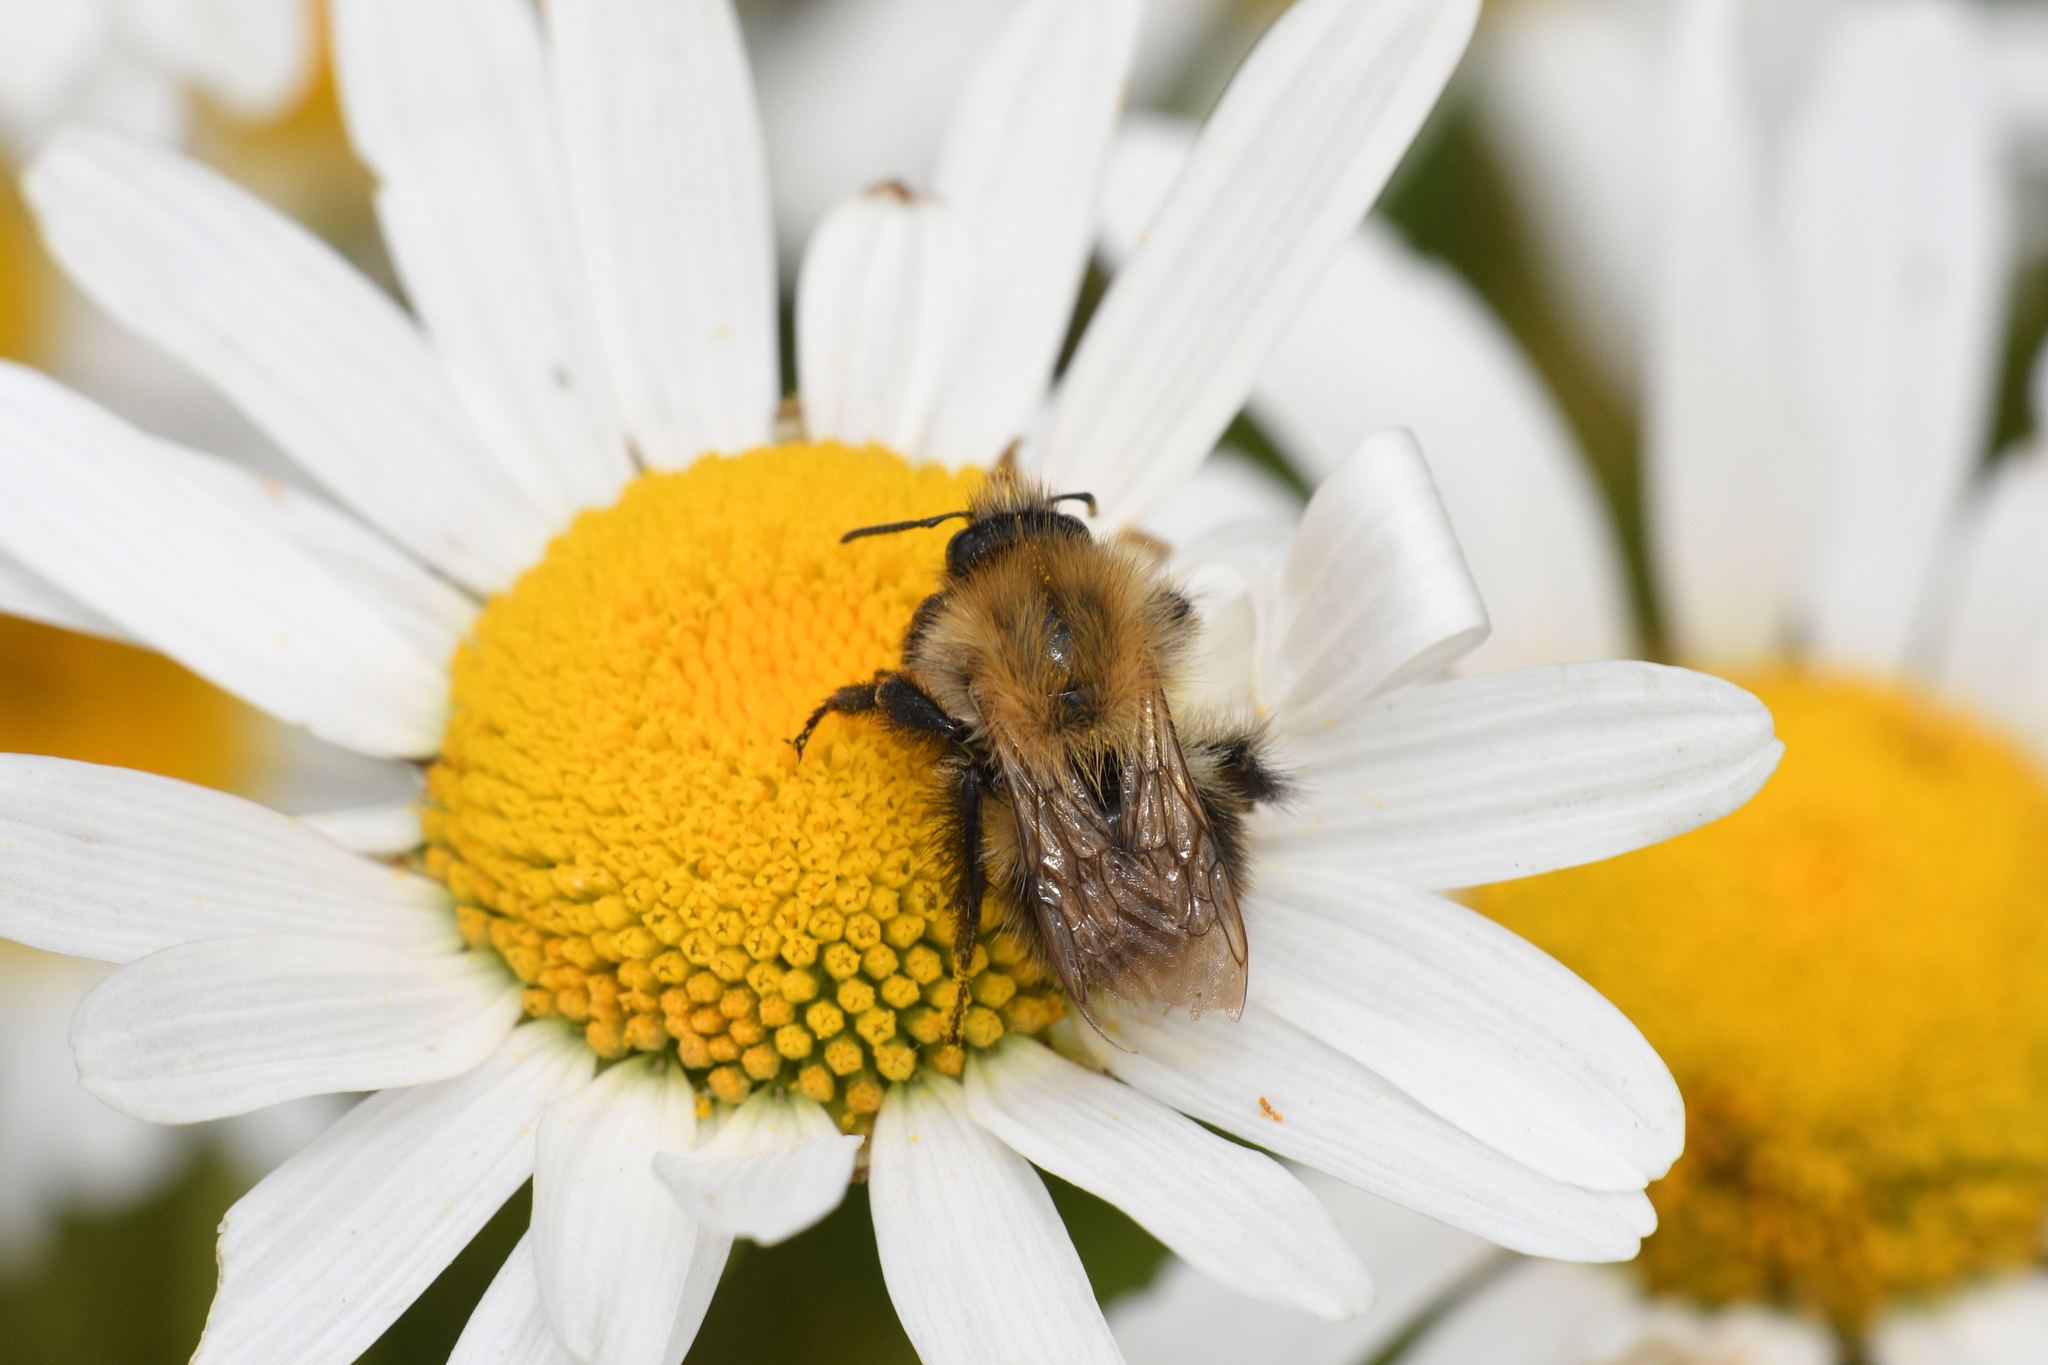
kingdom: Animalia
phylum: Arthropoda
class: Insecta
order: Hymenoptera
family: Apidae
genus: Bombus
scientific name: Bombus pascuorum
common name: Common carder bee
